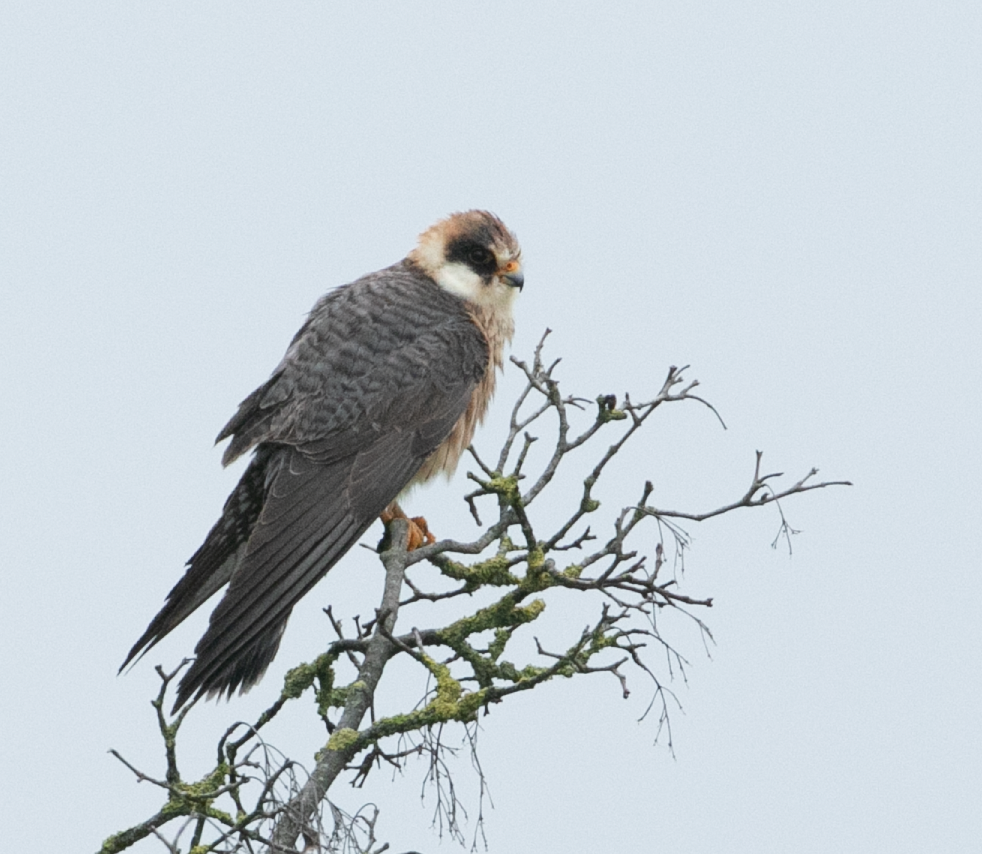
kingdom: Animalia
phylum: Chordata
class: Aves
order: Falconiformes
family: Falconidae
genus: Falco
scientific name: Falco vespertinus
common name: Red-footed falcon
